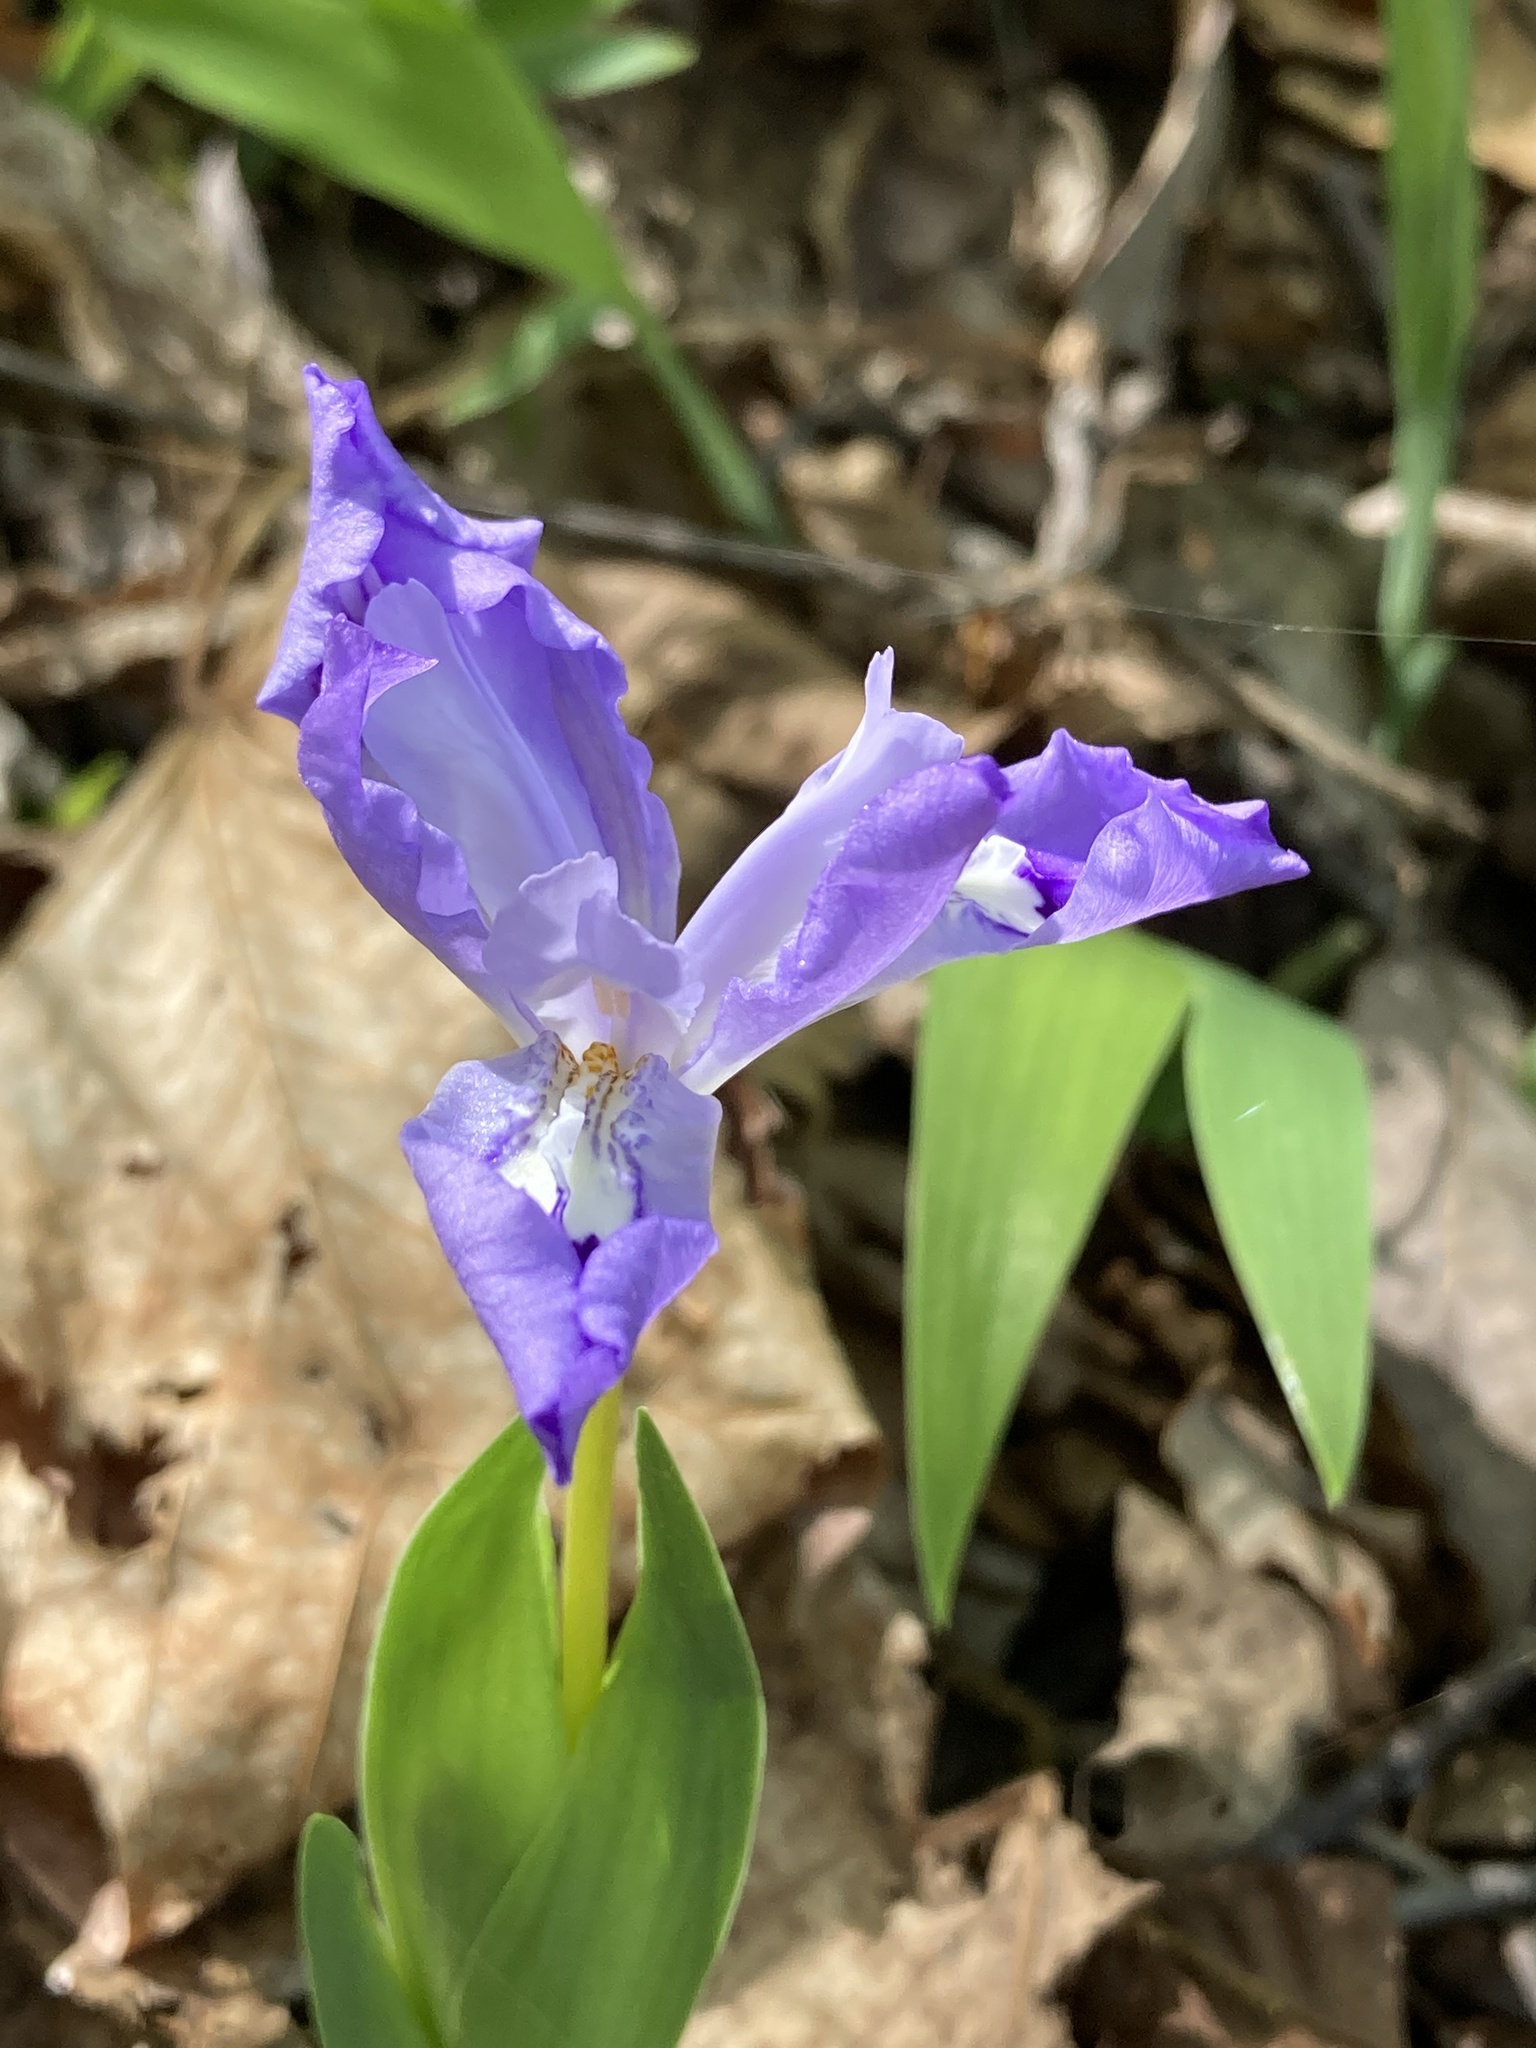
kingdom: Plantae
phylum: Tracheophyta
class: Liliopsida
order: Asparagales
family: Iridaceae
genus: Iris
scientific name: Iris cristata
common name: Crested iris
